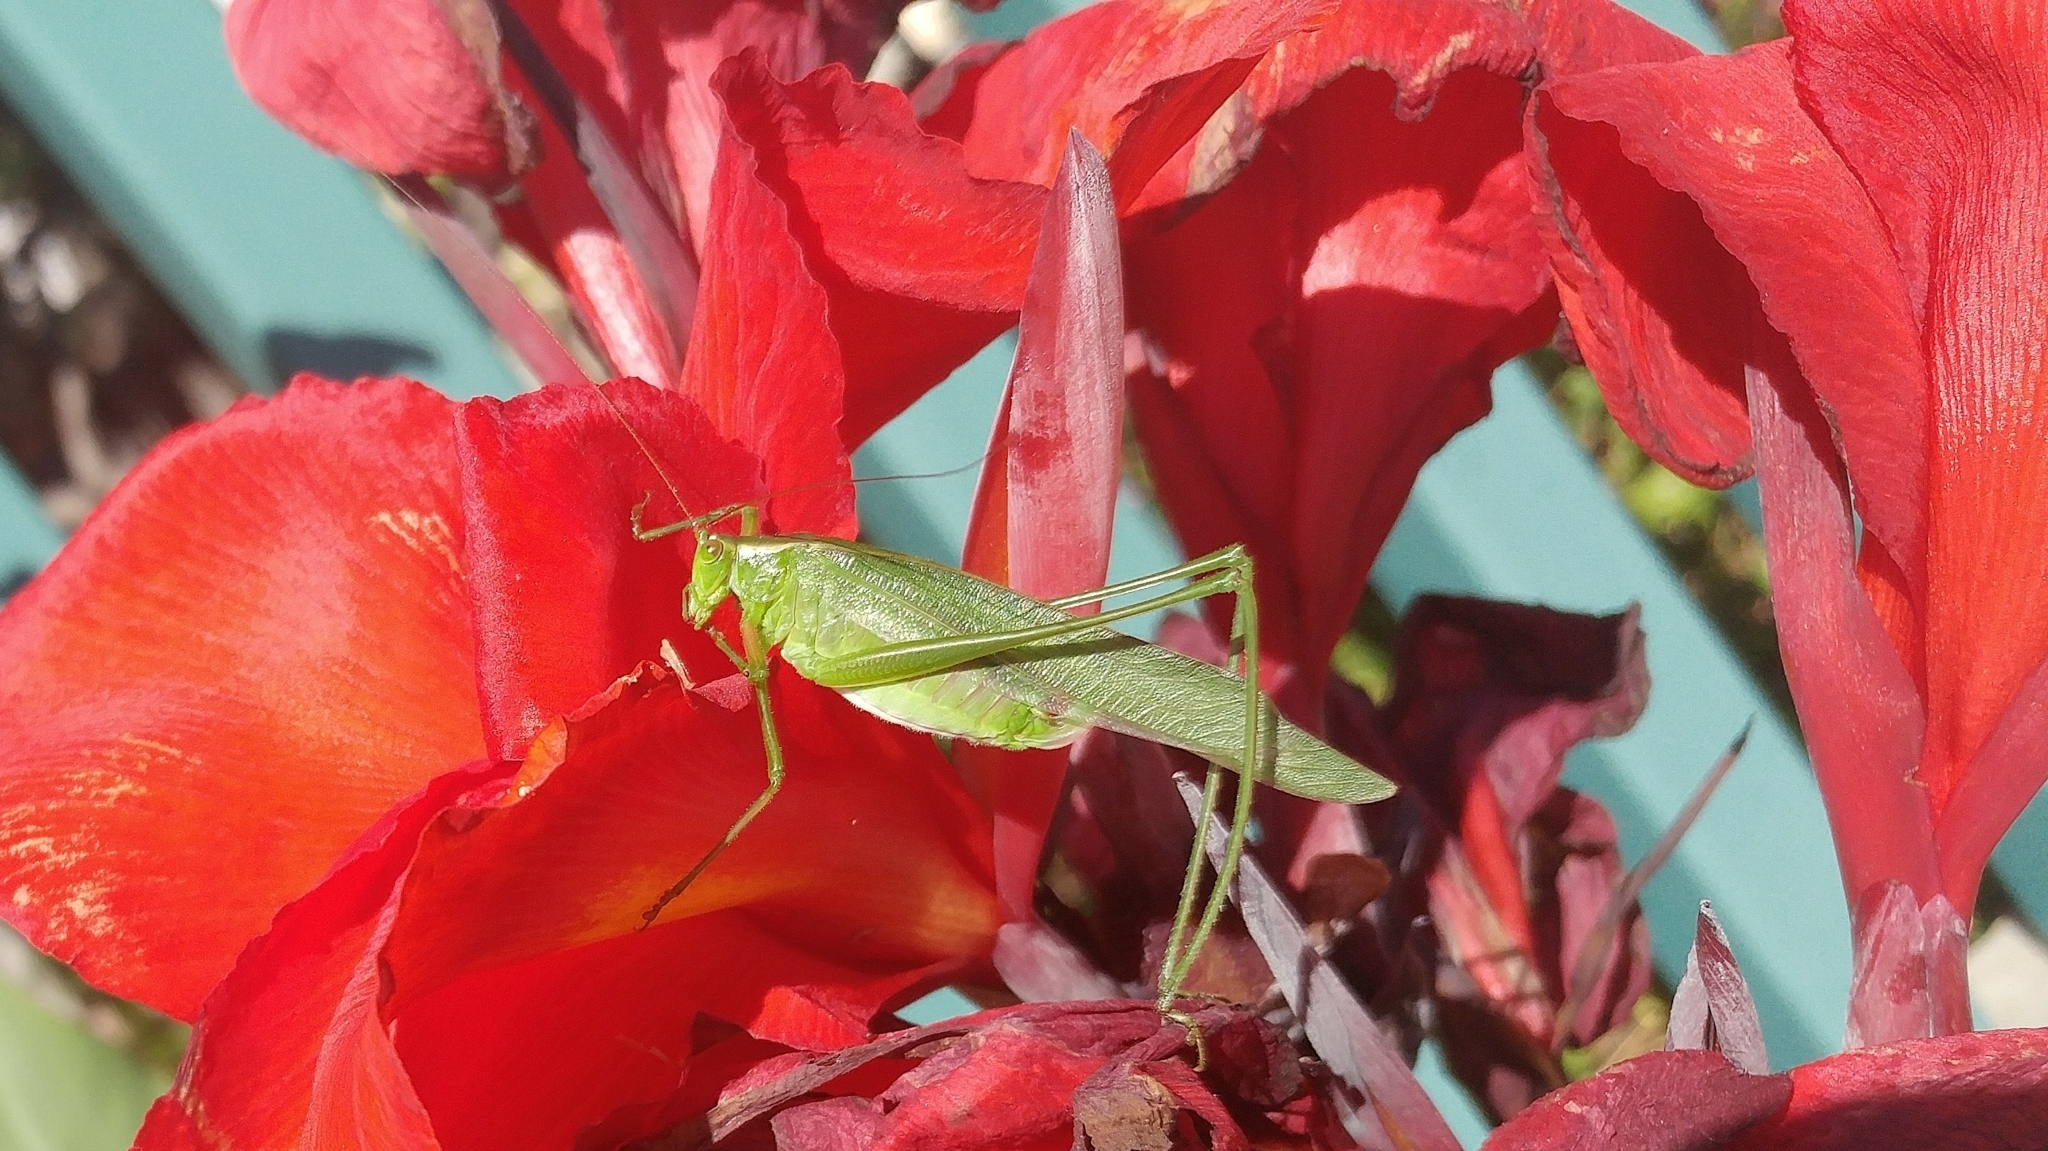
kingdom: Animalia
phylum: Arthropoda
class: Insecta
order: Orthoptera
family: Tettigoniidae
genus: Scudderia
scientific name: Scudderia
